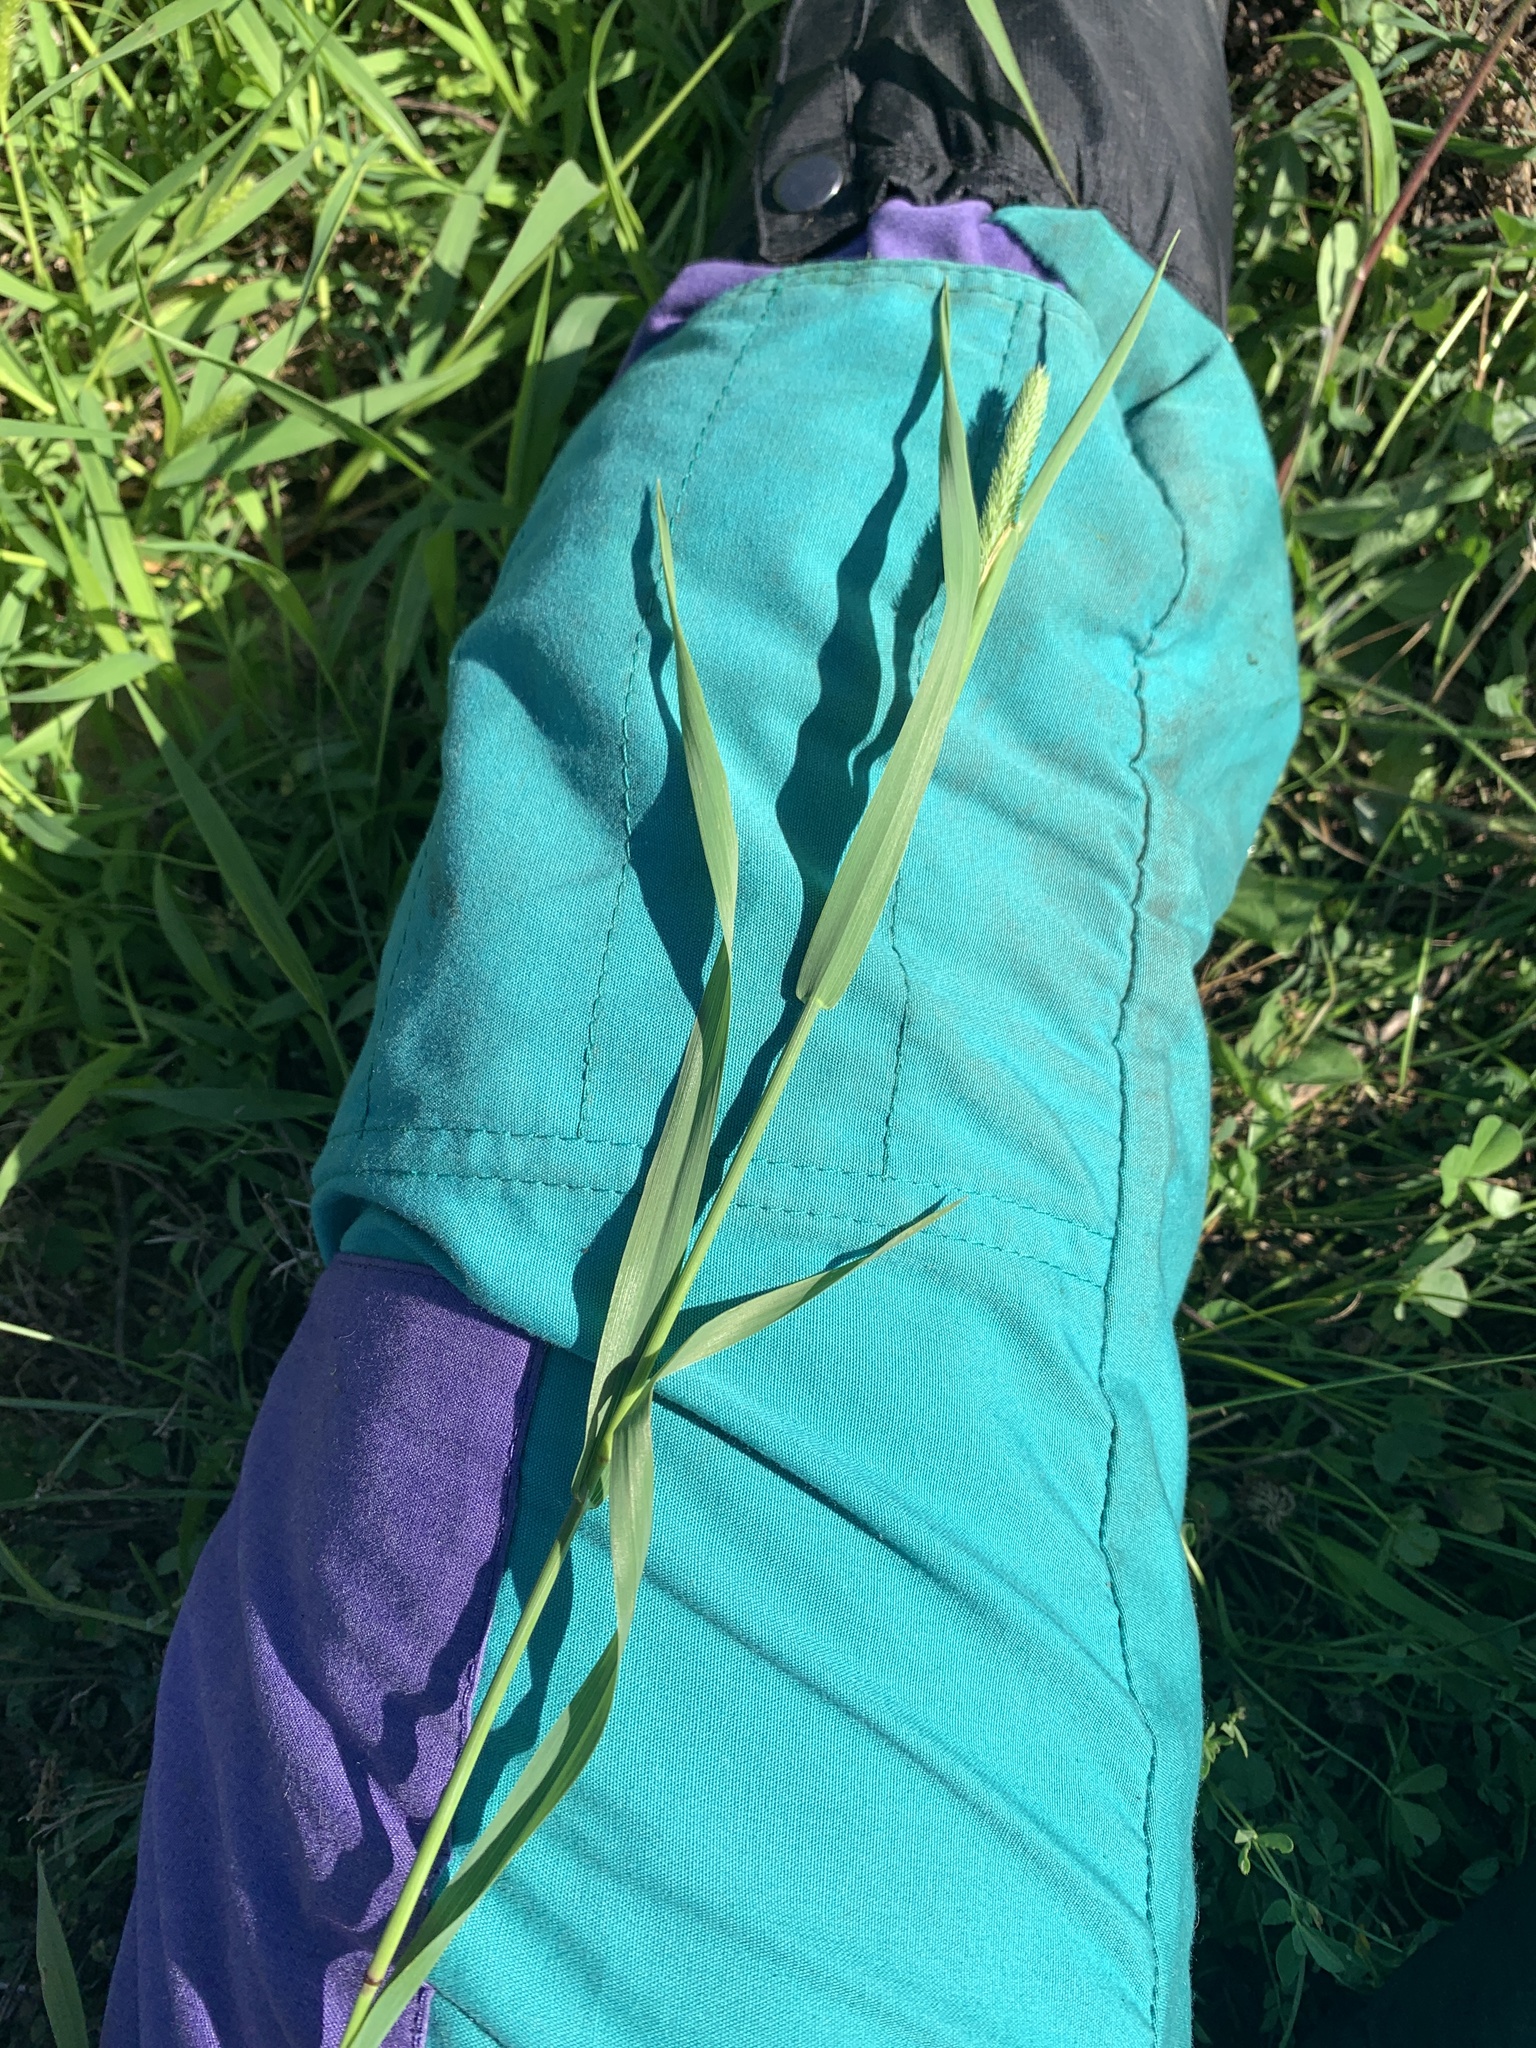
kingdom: Plantae
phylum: Tracheophyta
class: Liliopsida
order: Poales
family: Poaceae
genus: Phleum
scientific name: Phleum pratense
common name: Timothy grass
